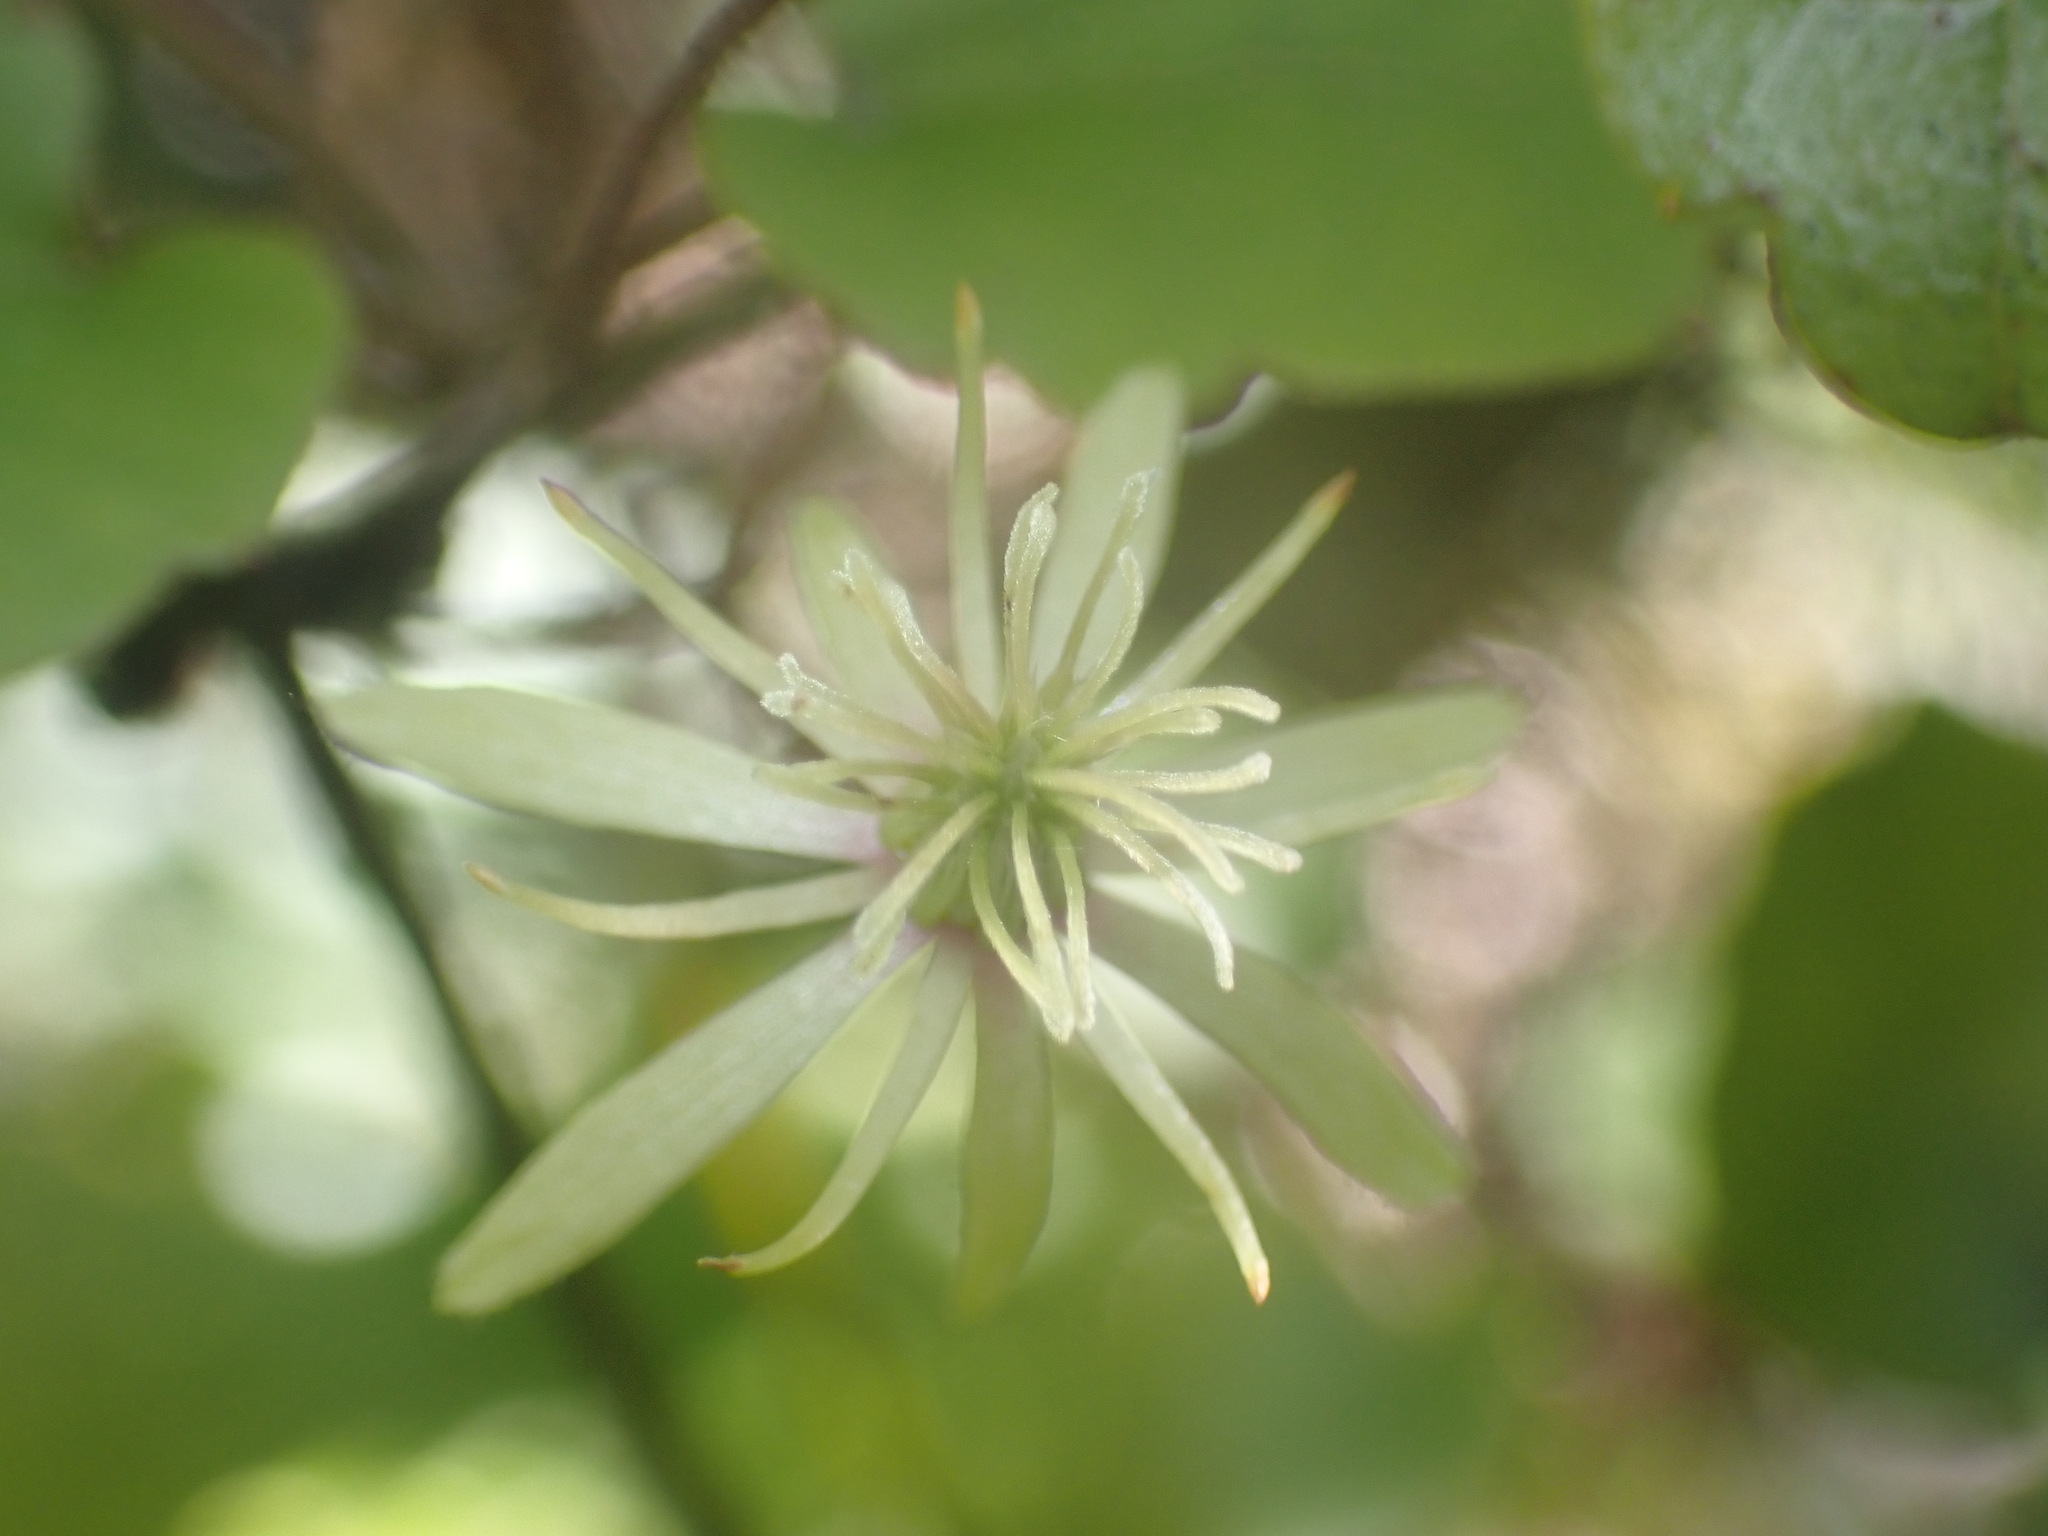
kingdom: Plantae
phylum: Tracheophyta
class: Magnoliopsida
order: Ranunculales
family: Ranunculaceae
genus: Clematis
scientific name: Clematis cunninghamii
